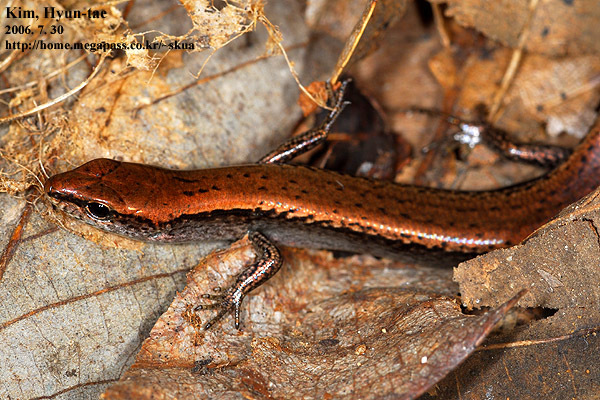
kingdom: Animalia
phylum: Chordata
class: Squamata
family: Scincidae
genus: Scincella
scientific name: Scincella vandenburghi
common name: Tsushima smooth skink
